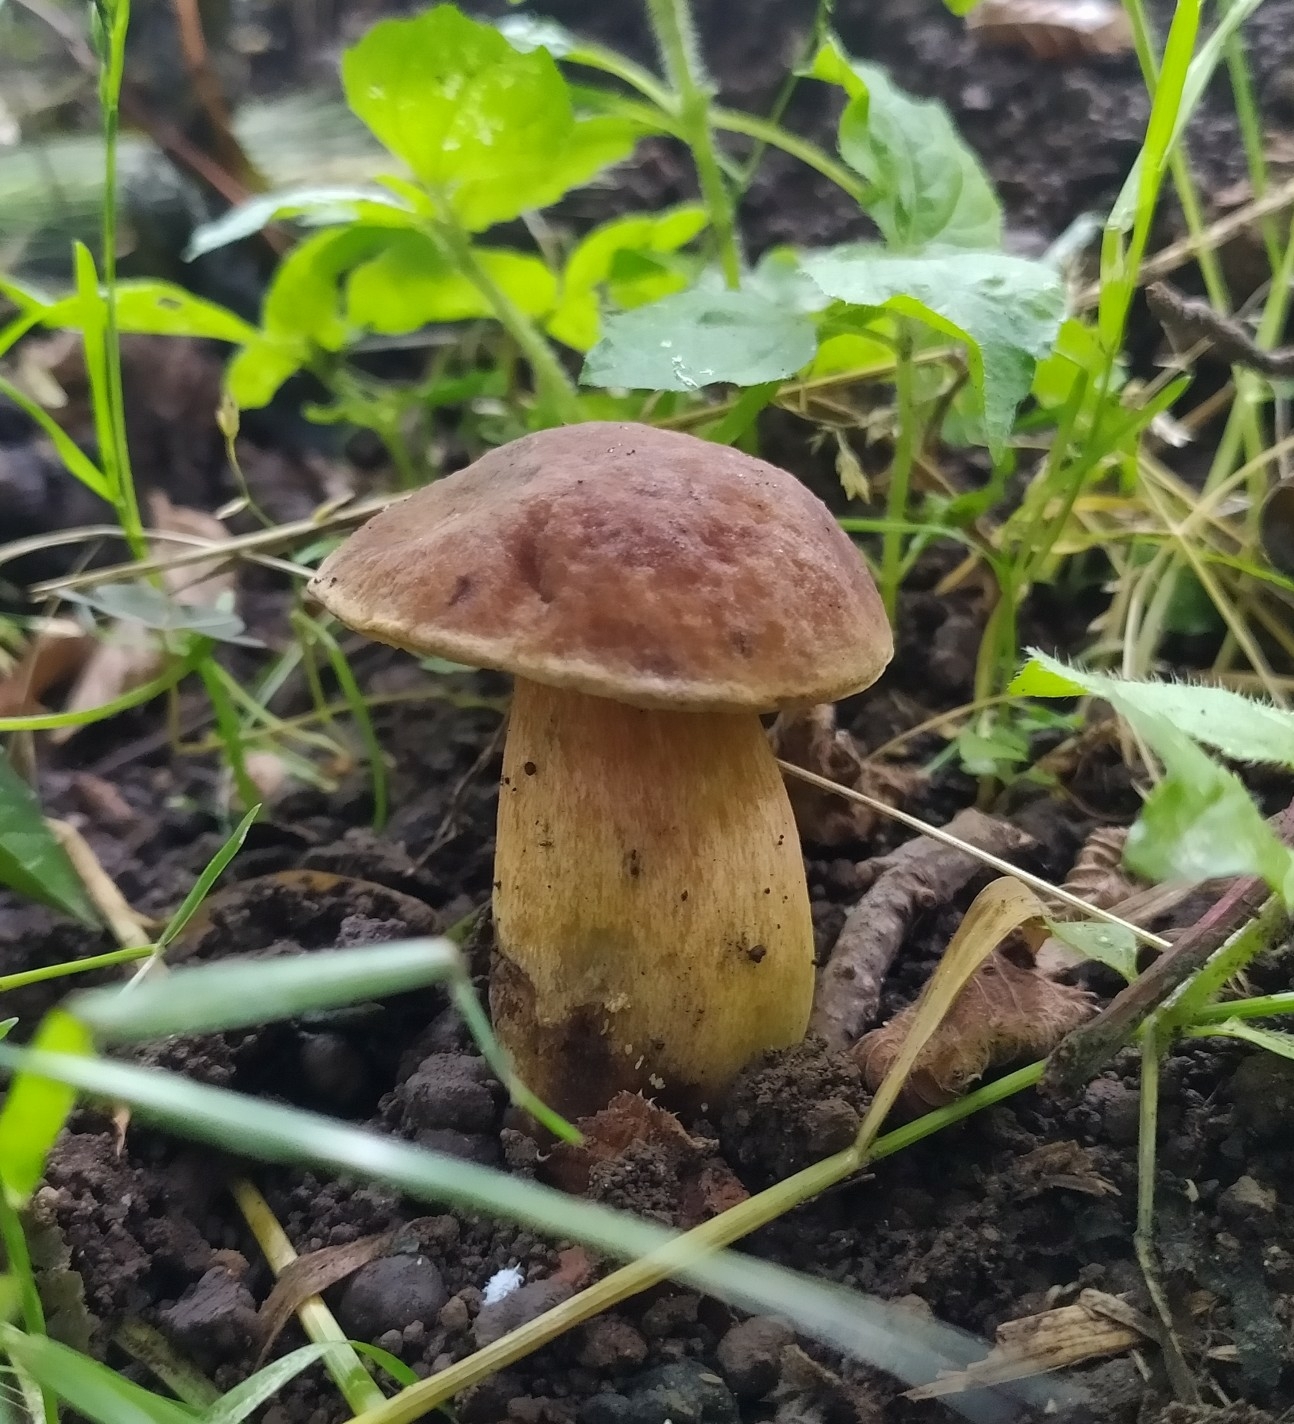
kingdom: Fungi
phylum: Basidiomycota
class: Agaricomycetes
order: Boletales
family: Boletaceae
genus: Boletus
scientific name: Boletus reticulatus
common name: Summer bolete
